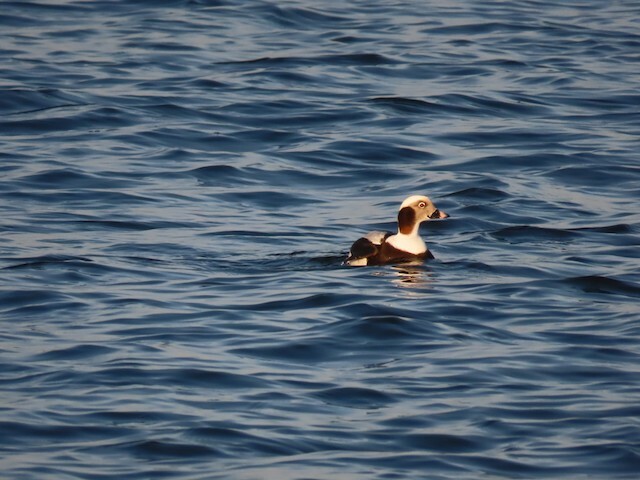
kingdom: Animalia
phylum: Chordata
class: Aves
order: Anseriformes
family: Anatidae
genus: Clangula
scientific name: Clangula hyemalis
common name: Long-tailed duck
